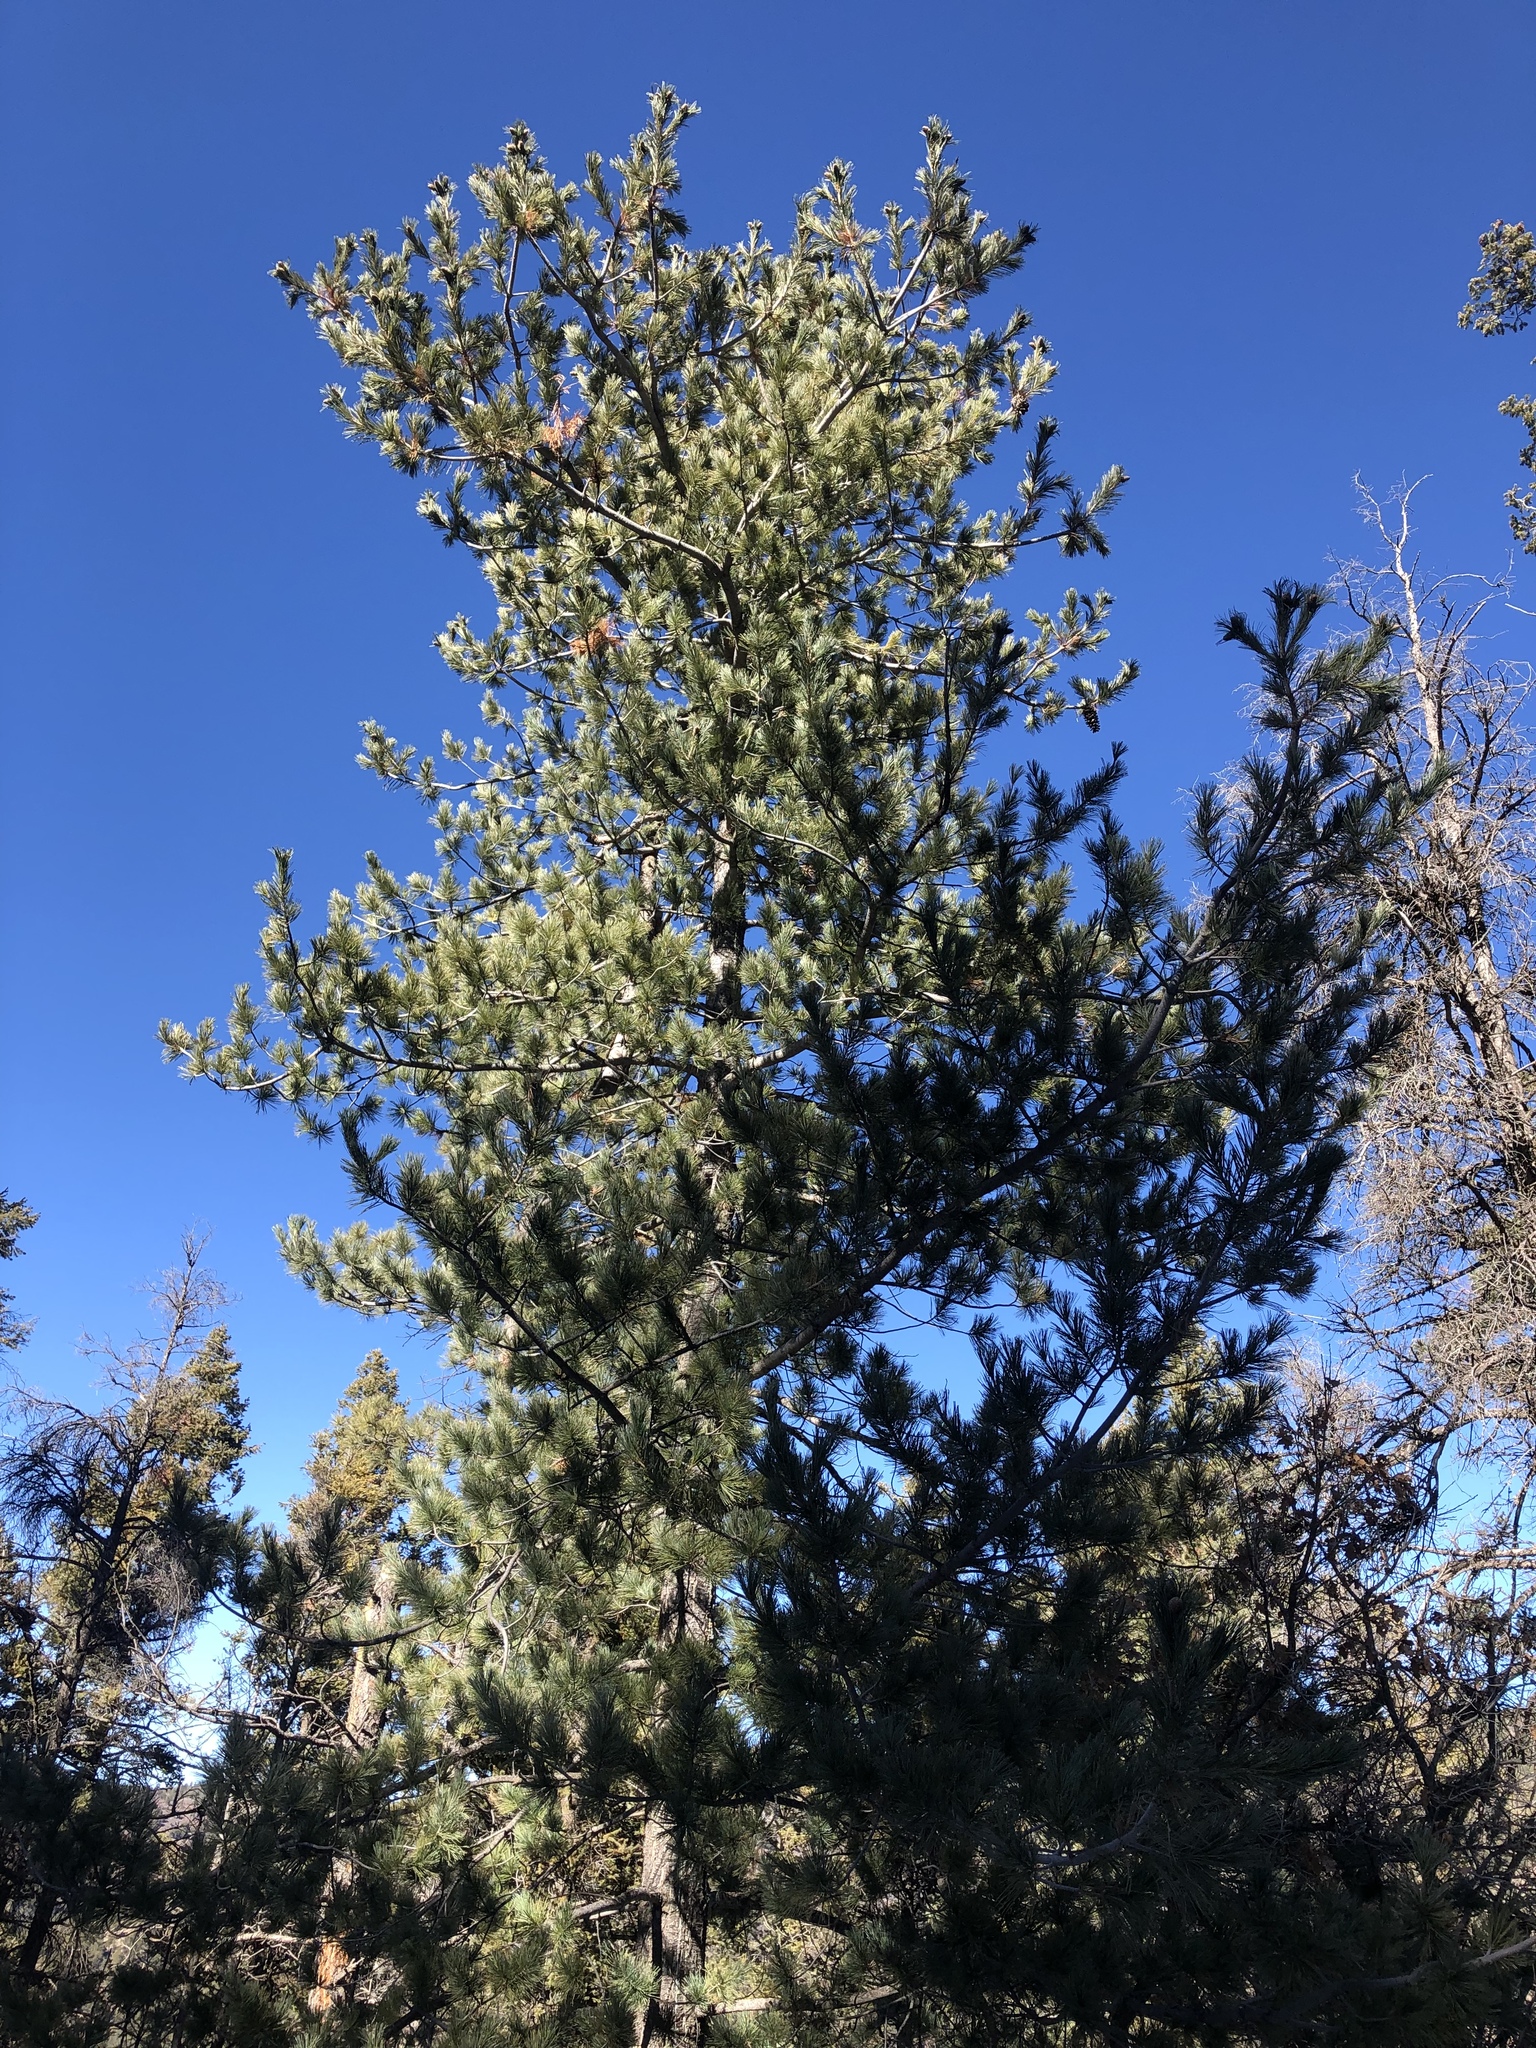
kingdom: Plantae
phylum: Tracheophyta
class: Pinopsida
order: Pinales
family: Pinaceae
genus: Pinus
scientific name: Pinus strobiformis
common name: Southwestern white pine
